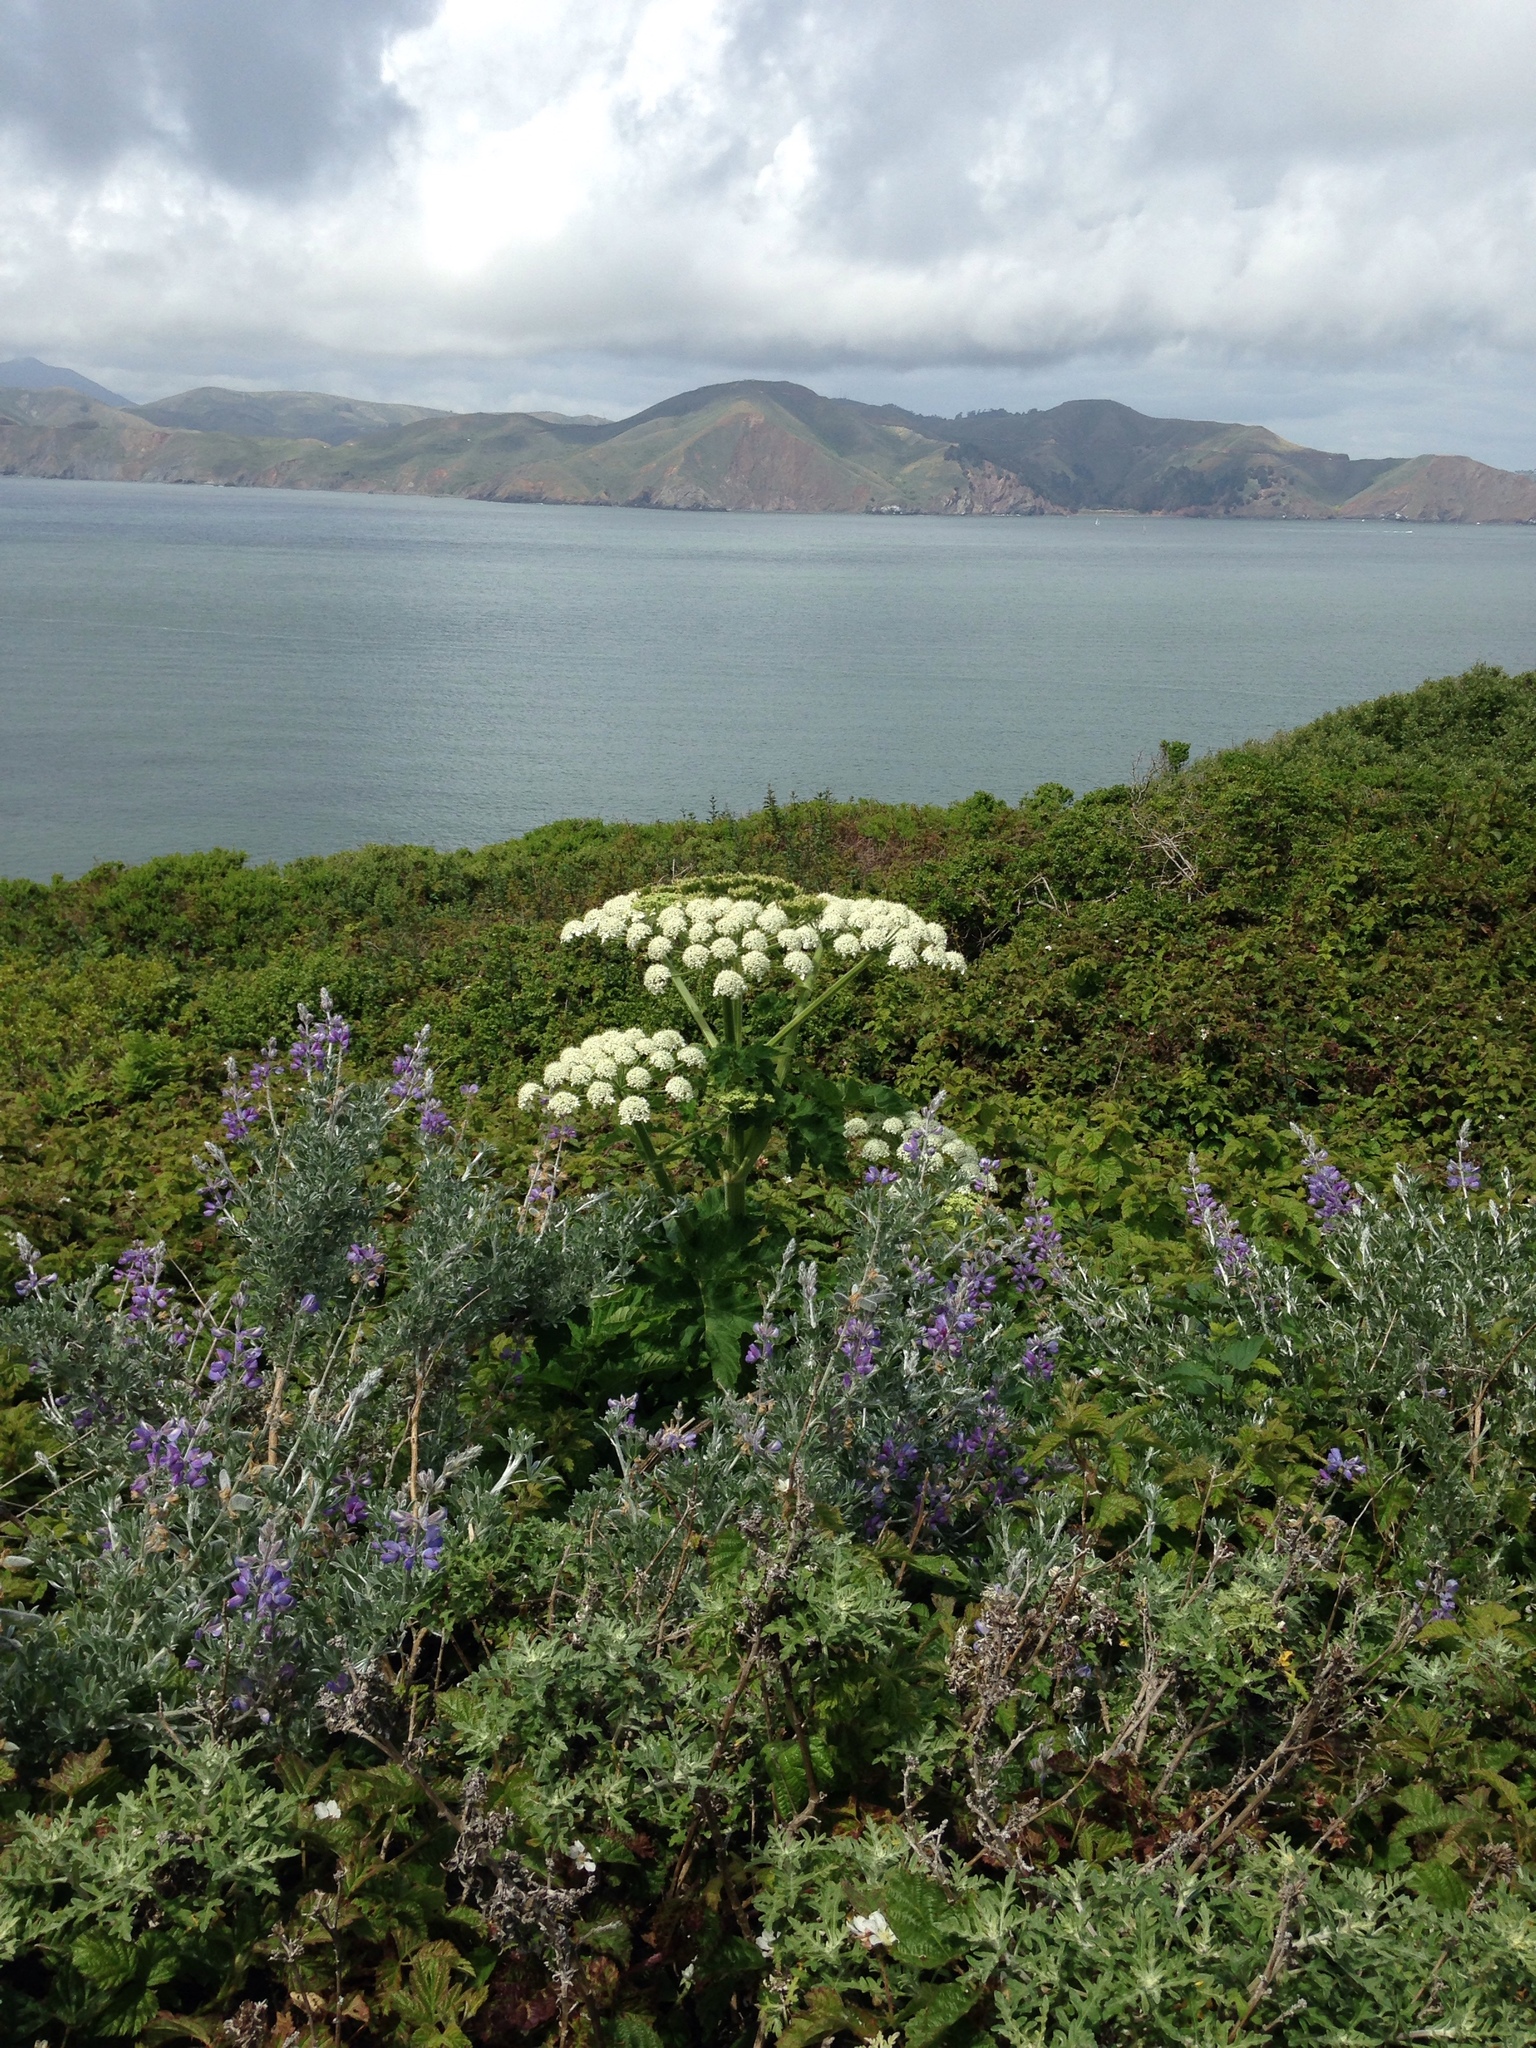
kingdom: Plantae
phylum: Tracheophyta
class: Magnoliopsida
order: Apiales
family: Apiaceae
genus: Heracleum
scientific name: Heracleum maximum
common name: American cow parsnip
